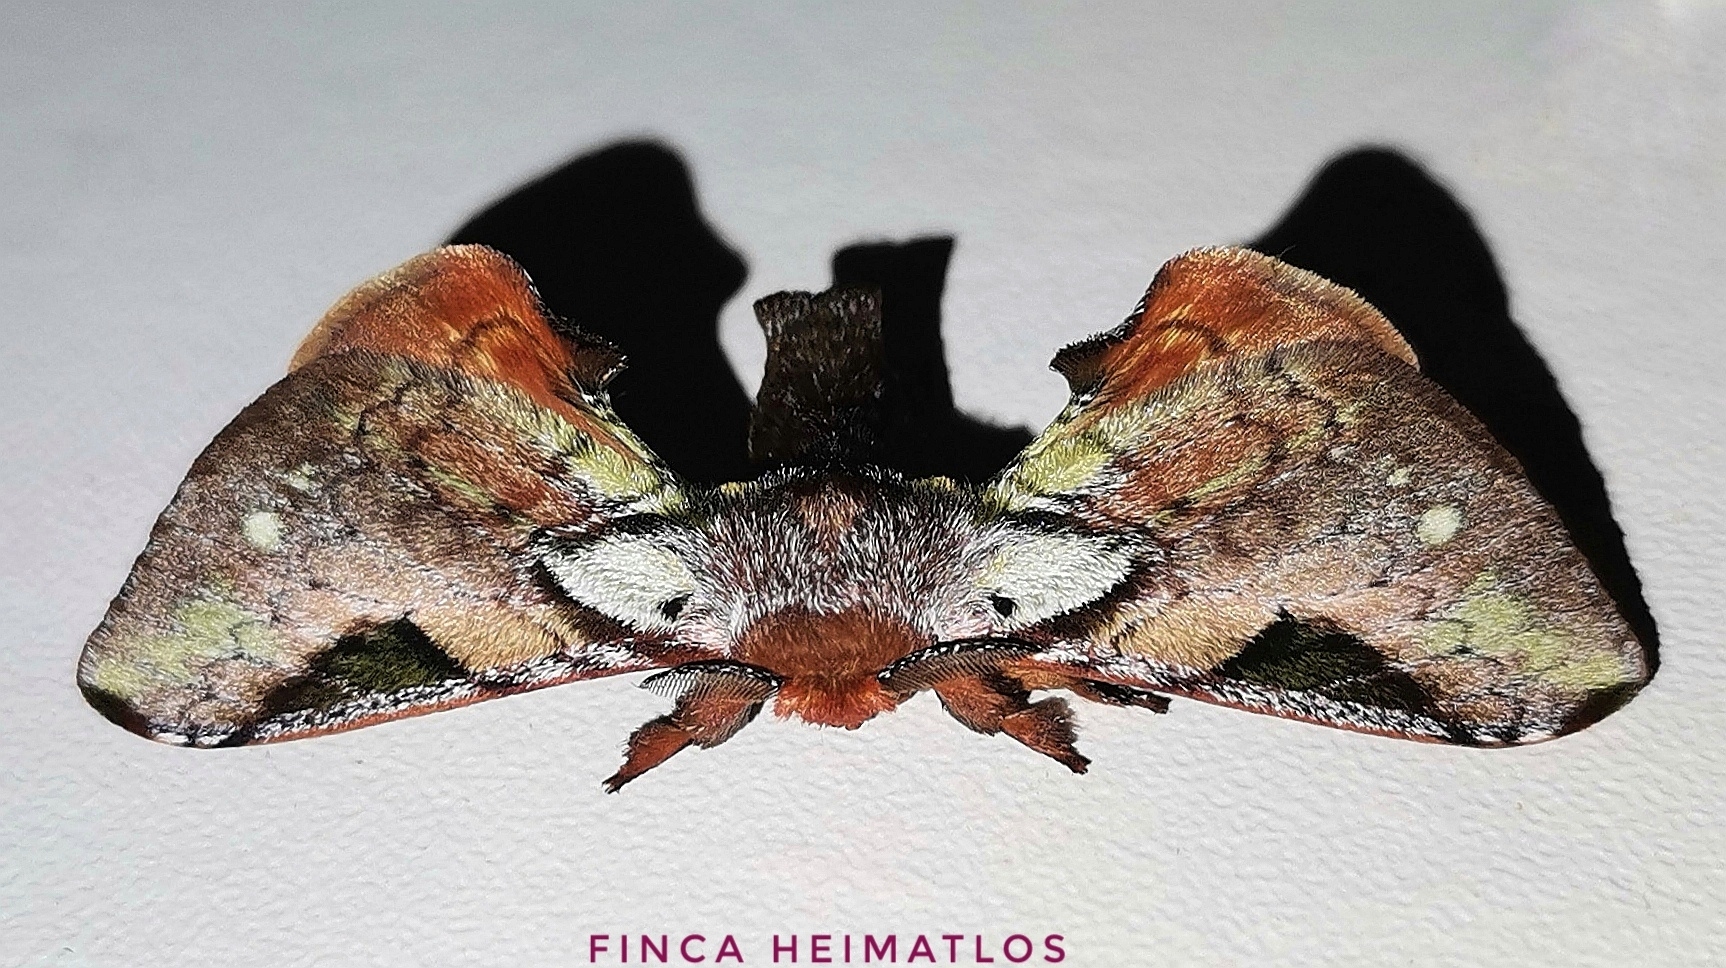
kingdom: Animalia
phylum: Arthropoda
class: Insecta
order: Lepidoptera
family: Bombycidae
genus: Epia
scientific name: Epia madeira
